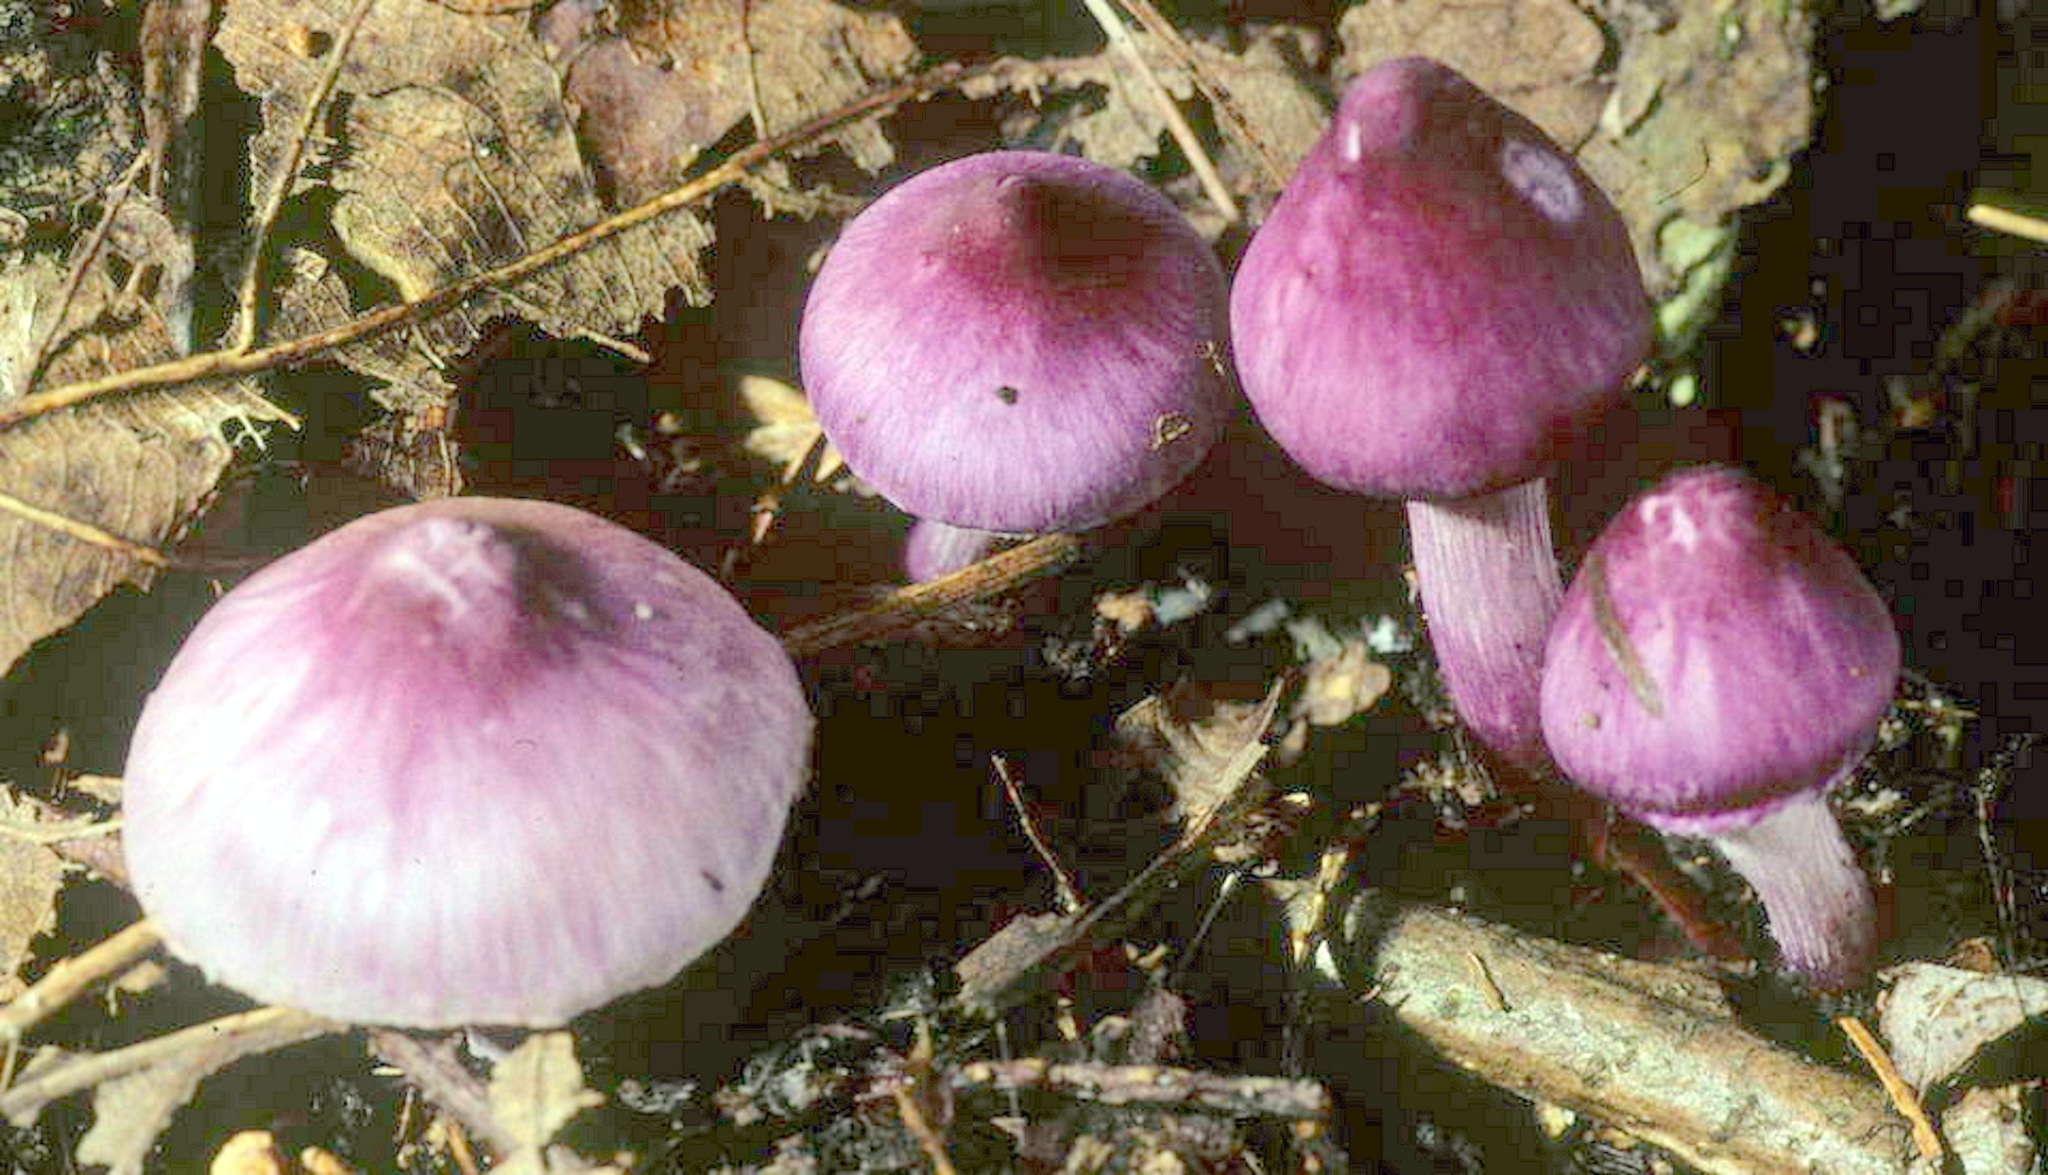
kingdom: Fungi
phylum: Basidiomycota
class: Agaricomycetes
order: Agaricales
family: Inocybaceae
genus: Inocybe
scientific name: Inocybe geophylla
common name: White fibrecap
